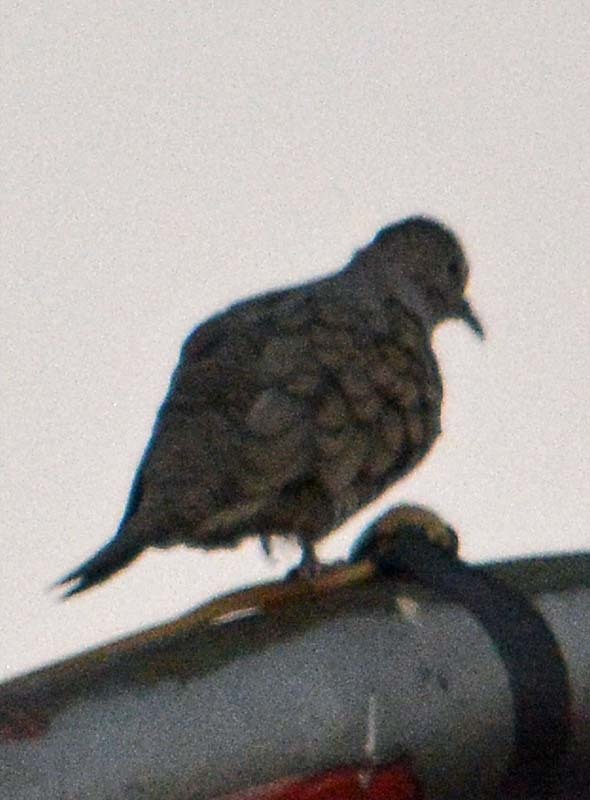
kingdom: Animalia
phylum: Chordata
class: Aves
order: Columbiformes
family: Columbidae
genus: Columbina
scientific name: Columbina inca
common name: Inca dove
